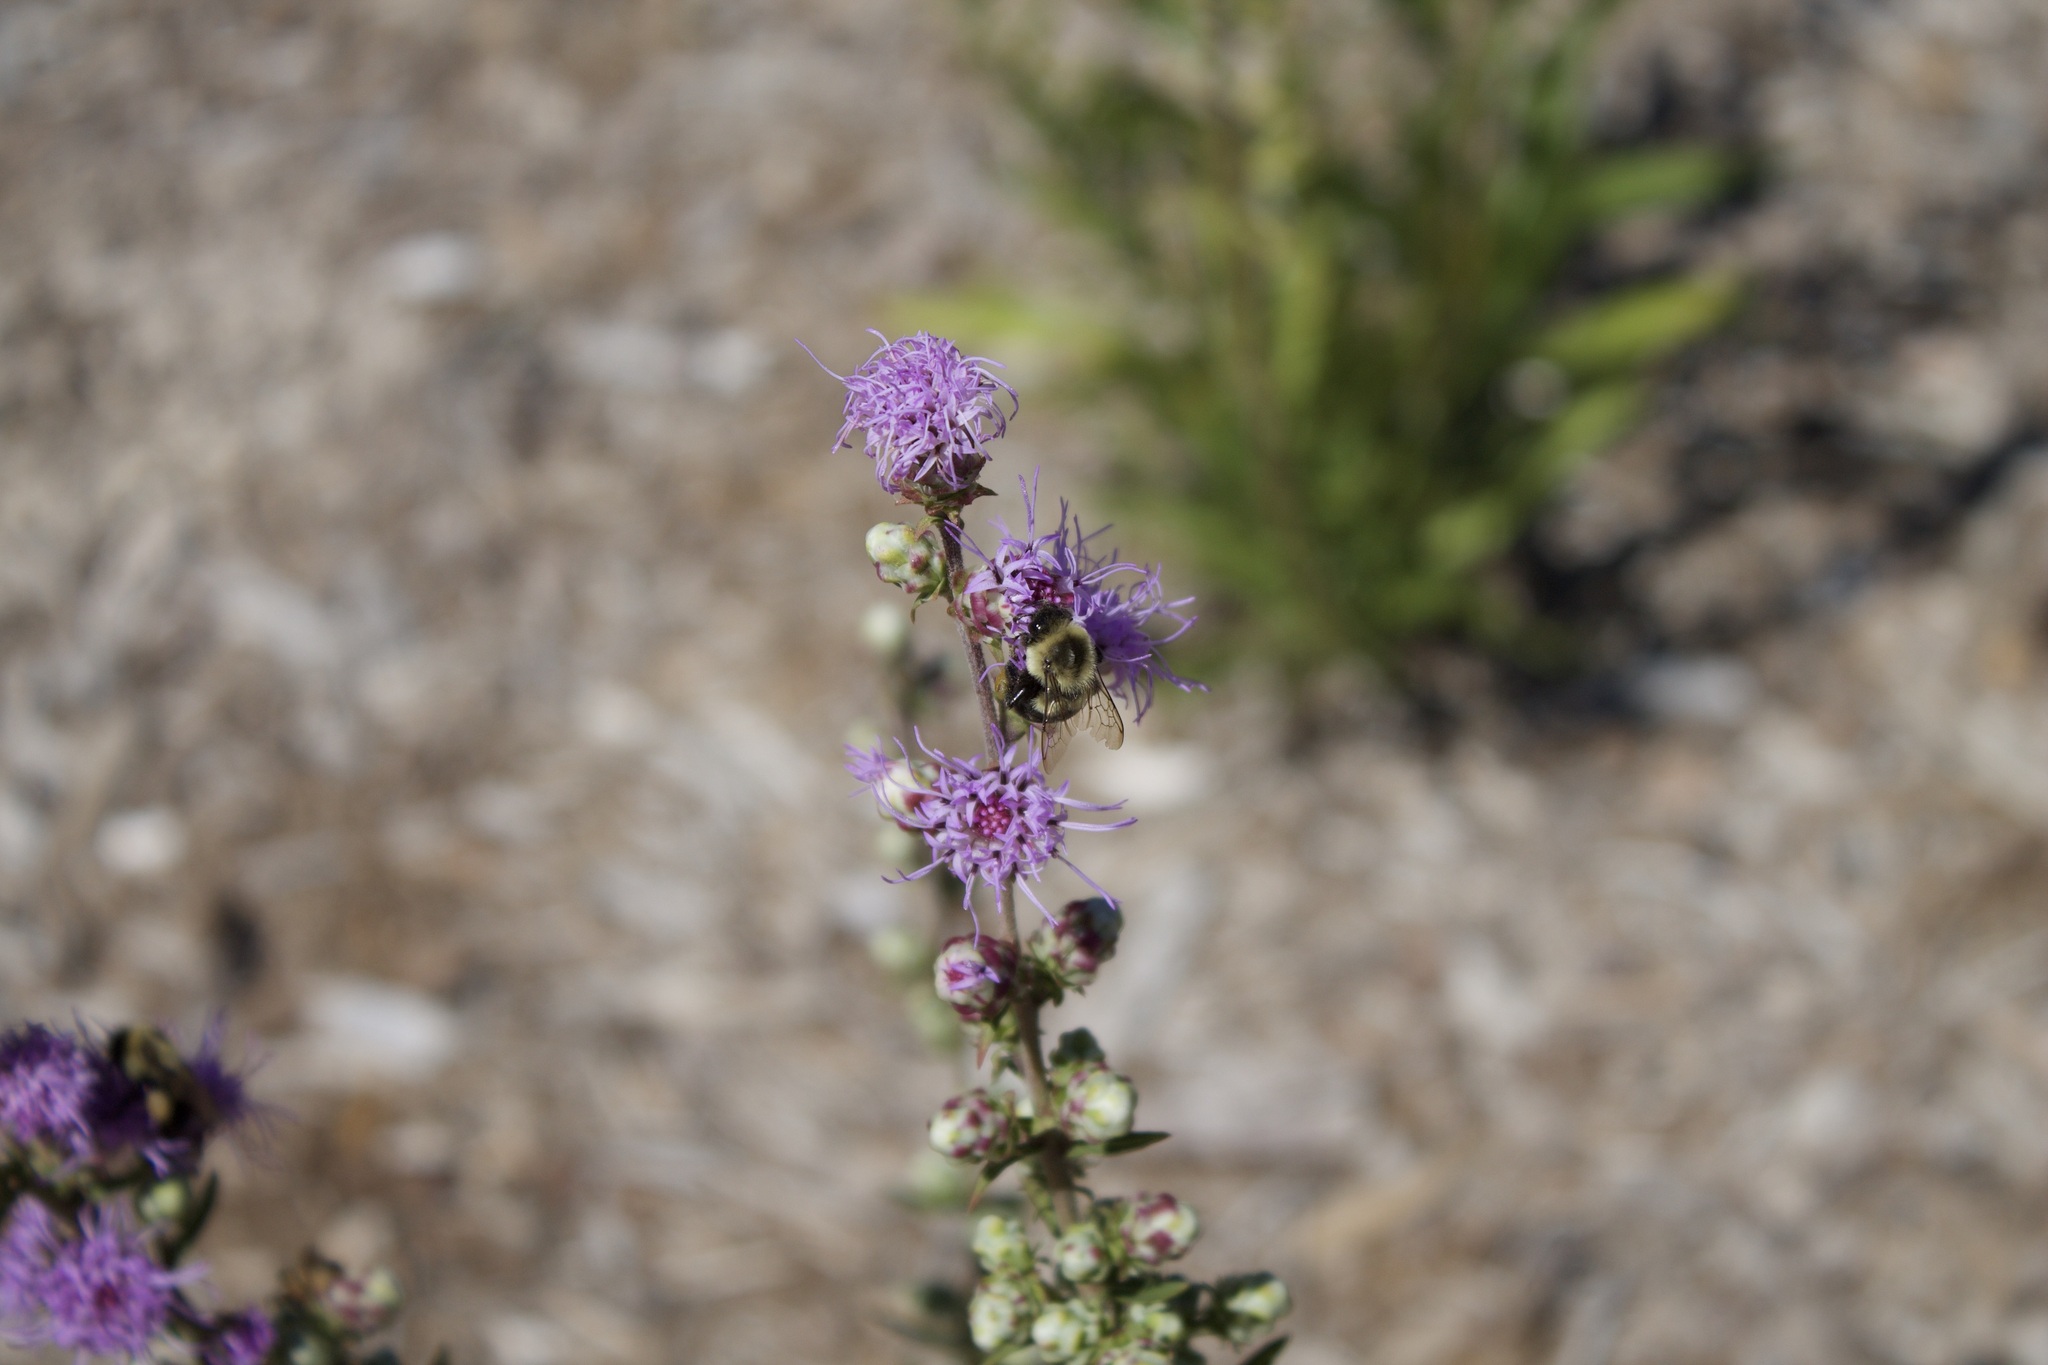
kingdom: Animalia
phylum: Arthropoda
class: Insecta
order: Hymenoptera
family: Apidae
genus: Bombus
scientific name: Bombus impatiens
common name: Common eastern bumble bee
